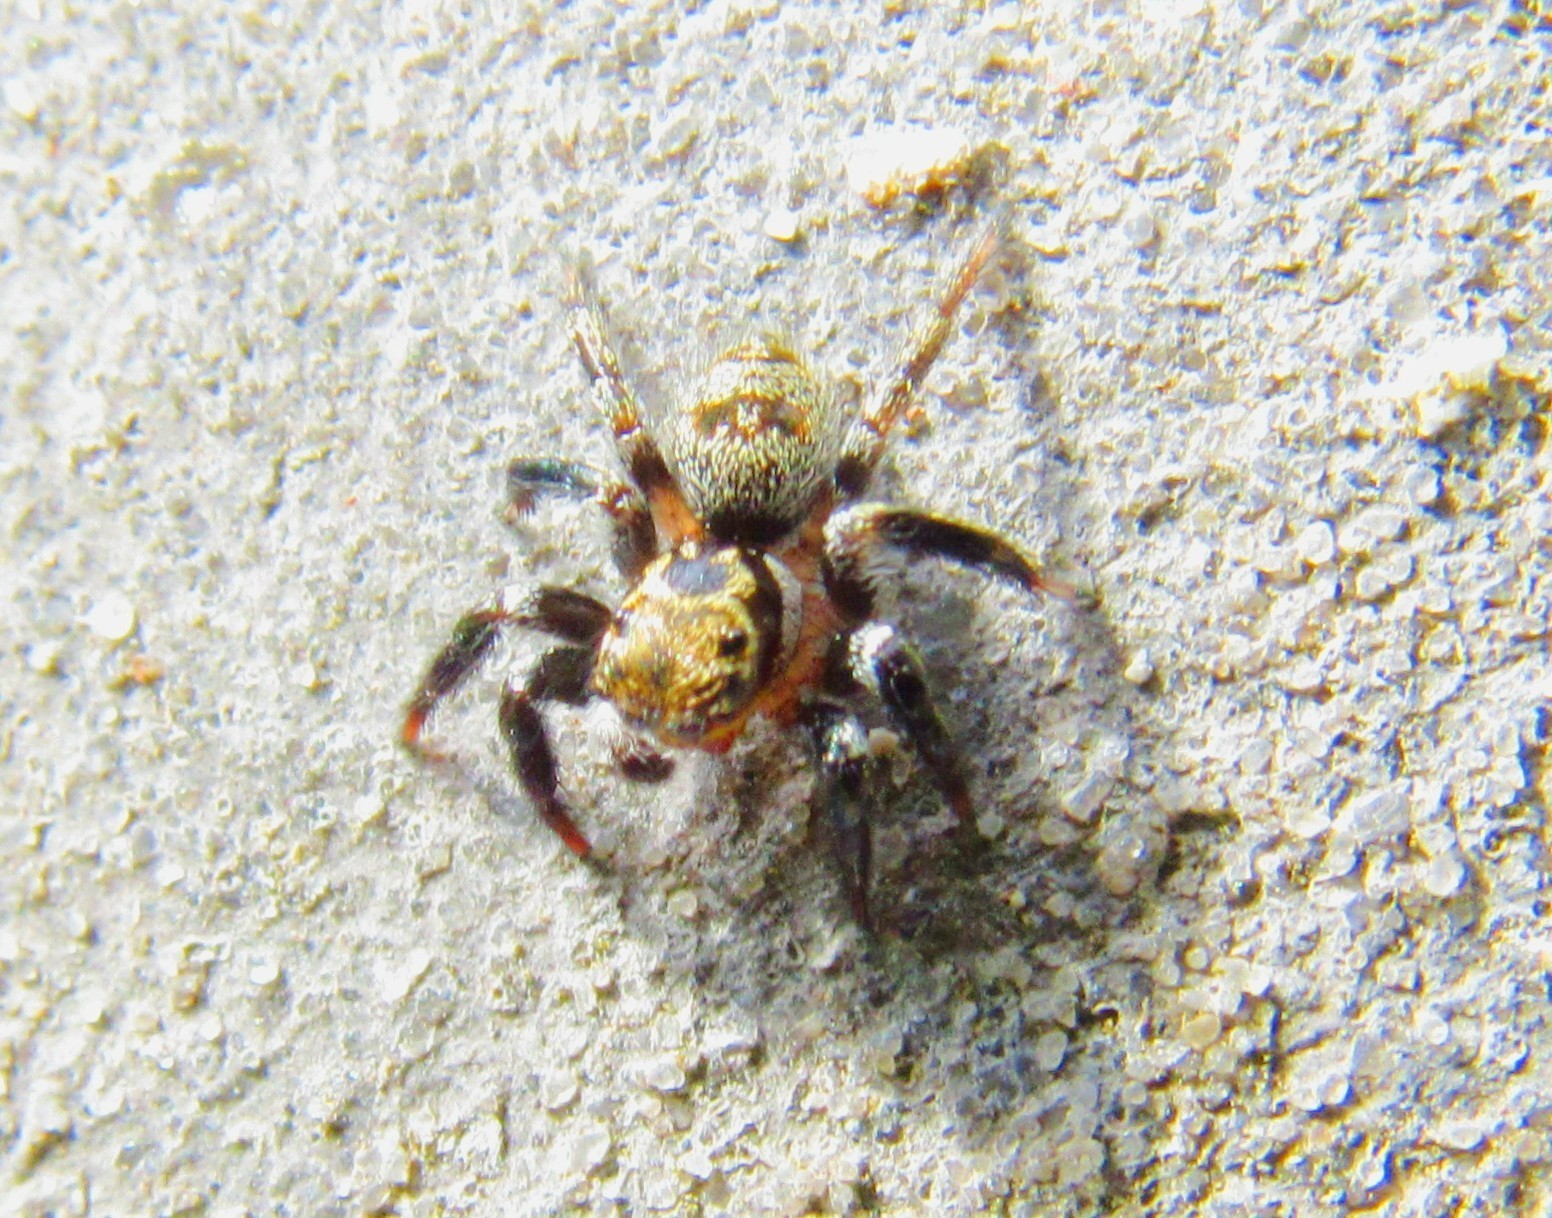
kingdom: Animalia
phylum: Arthropoda
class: Arachnida
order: Araneae
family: Salticidae
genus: Corythalia
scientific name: Corythalia conferta
